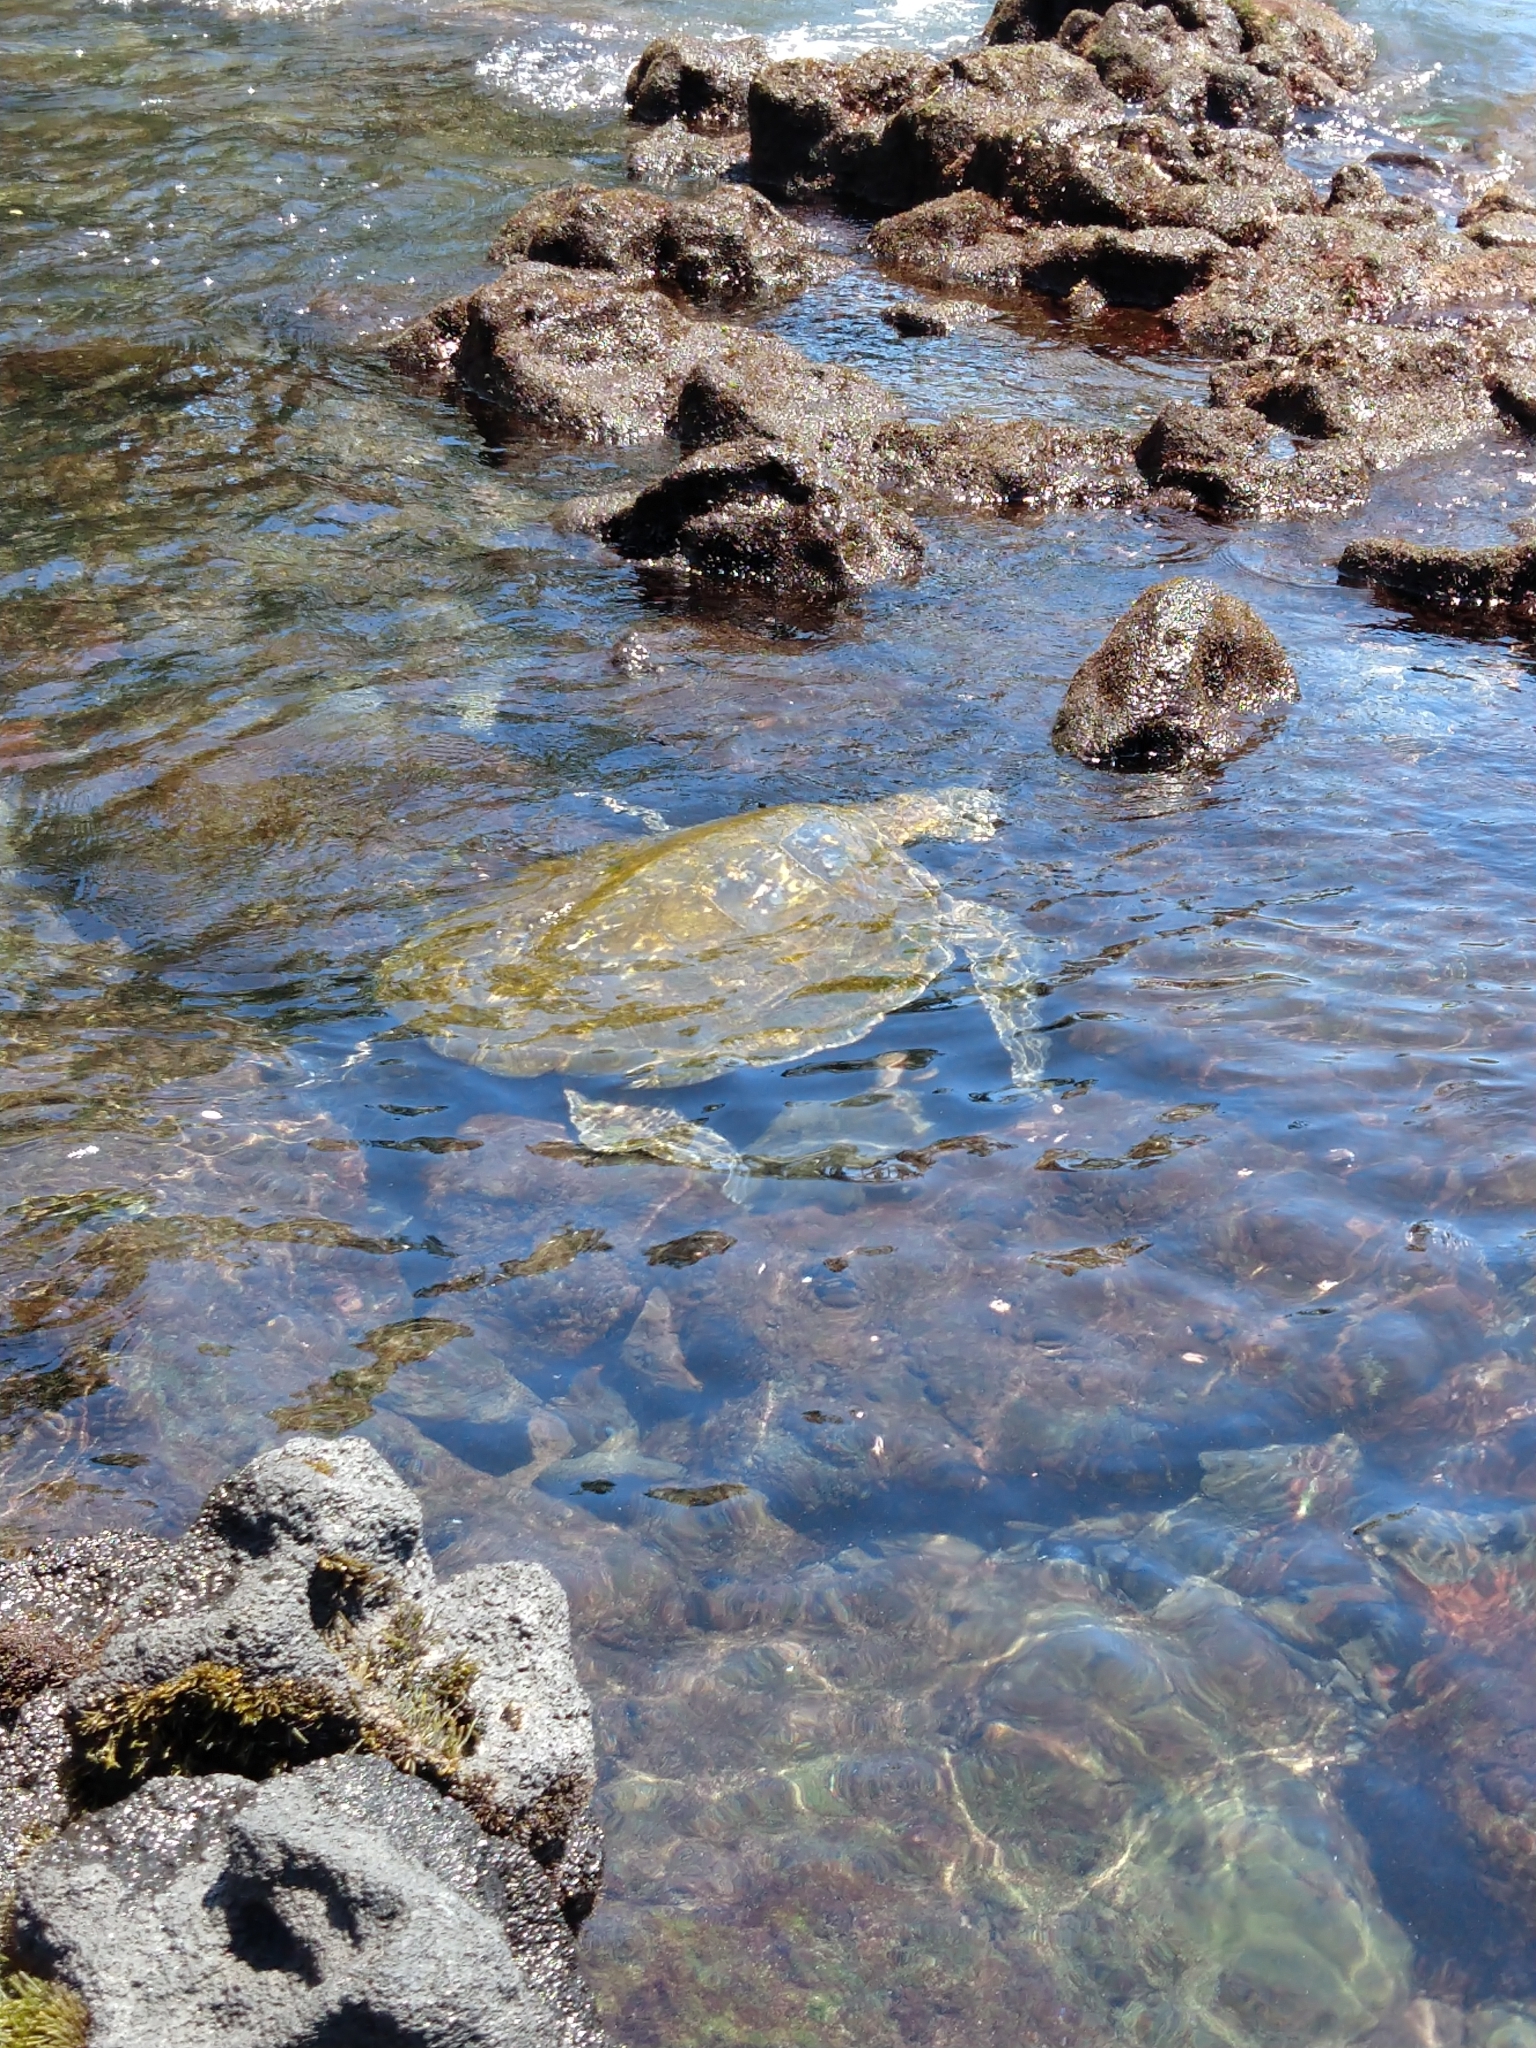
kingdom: Animalia
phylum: Chordata
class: Testudines
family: Cheloniidae
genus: Chelonia
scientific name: Chelonia mydas
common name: Green turtle
